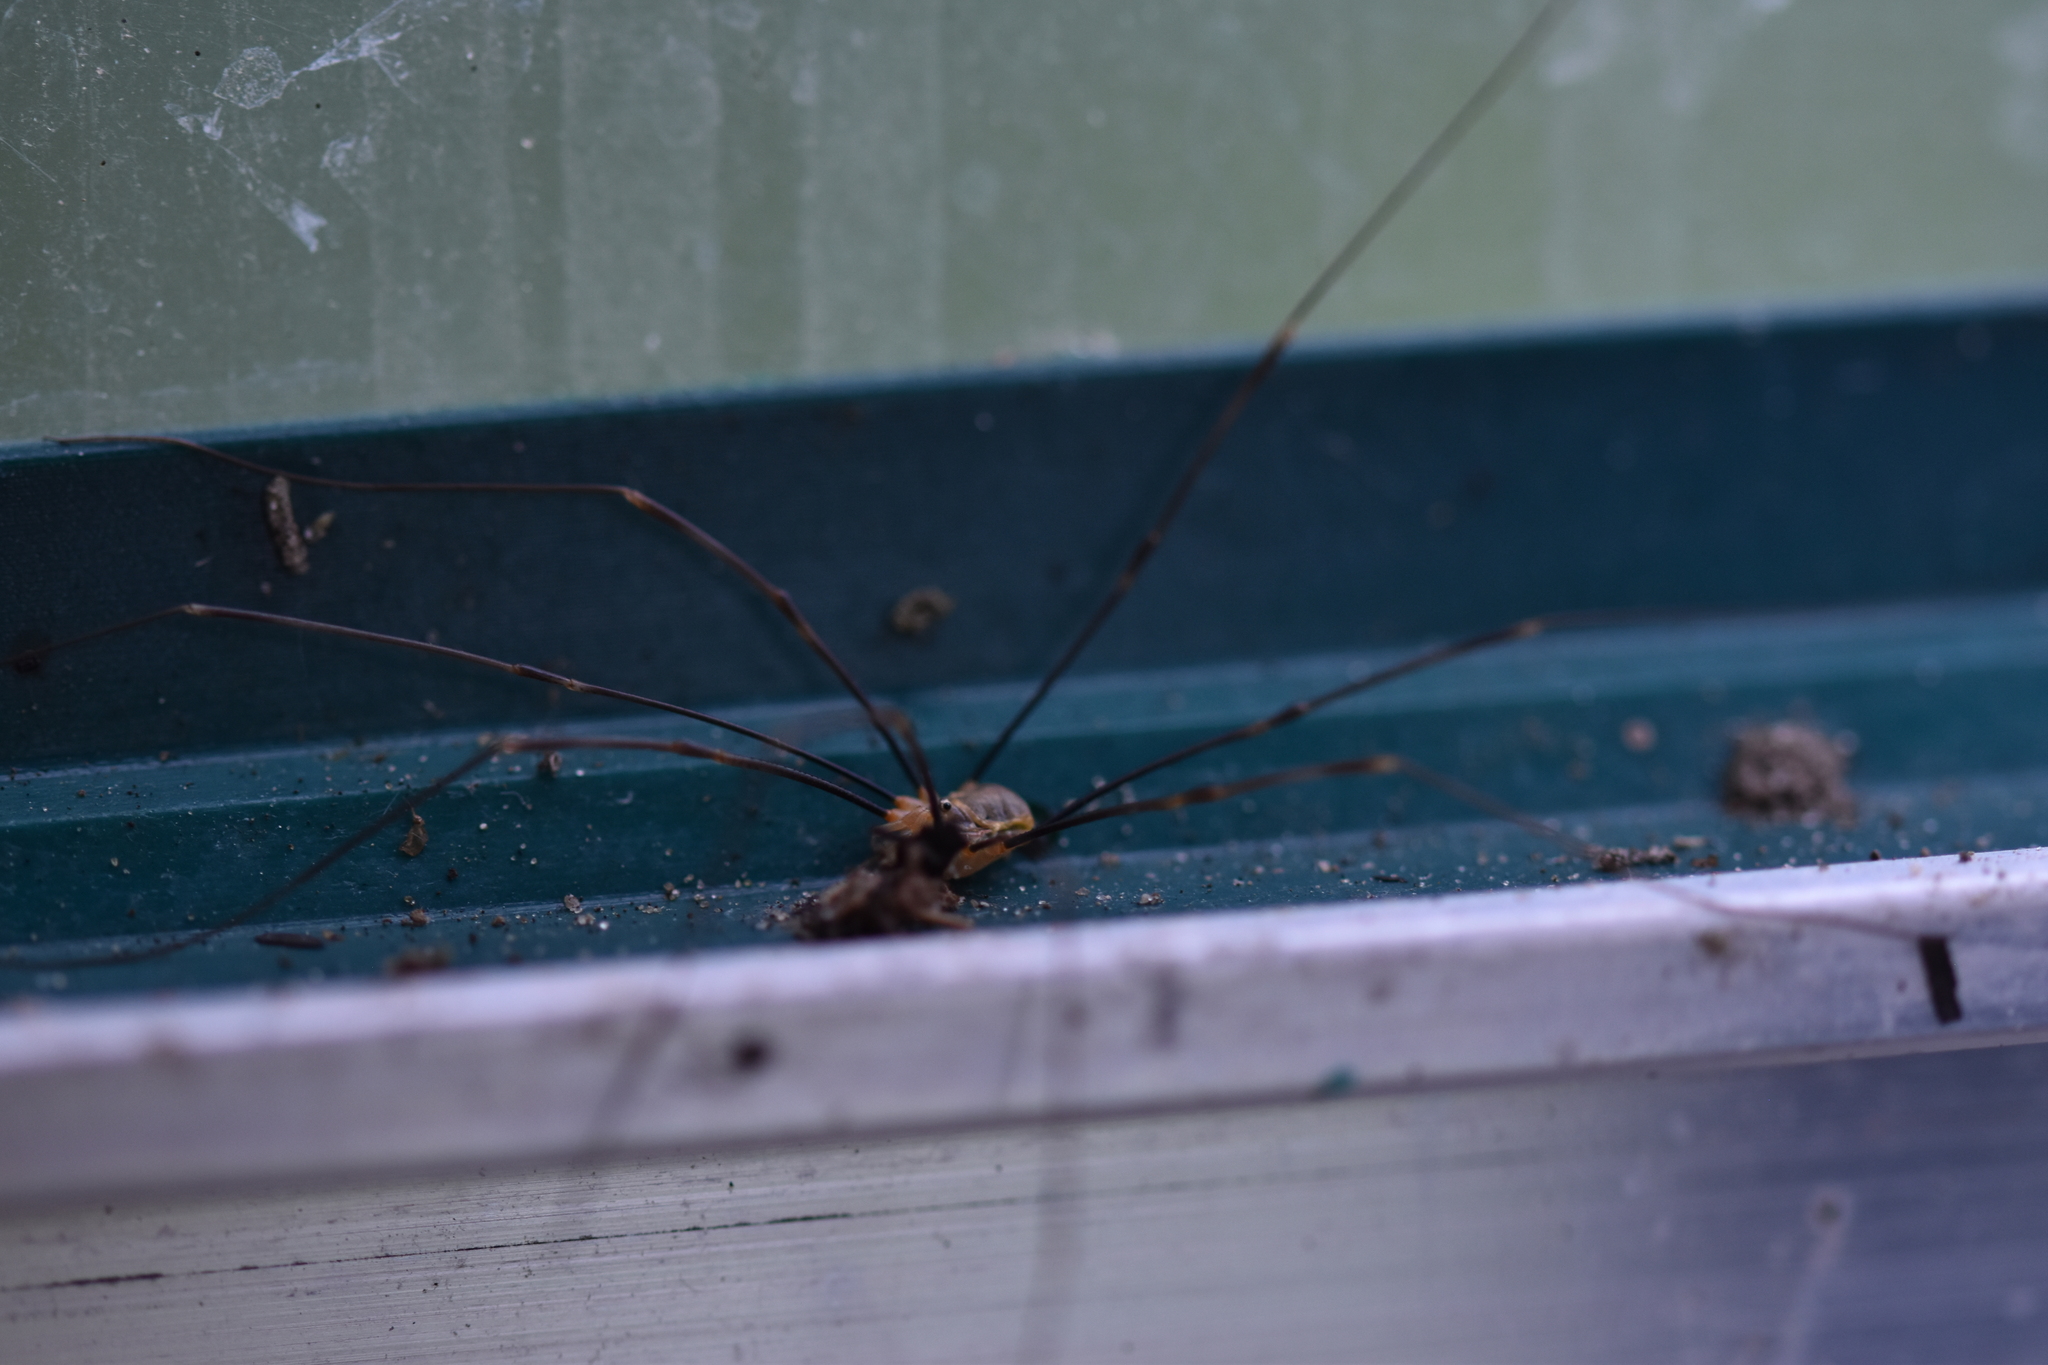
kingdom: Animalia
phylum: Arthropoda
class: Arachnida
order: Opiliones
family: Phalangiidae
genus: Opilio
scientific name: Opilio canestrinii
